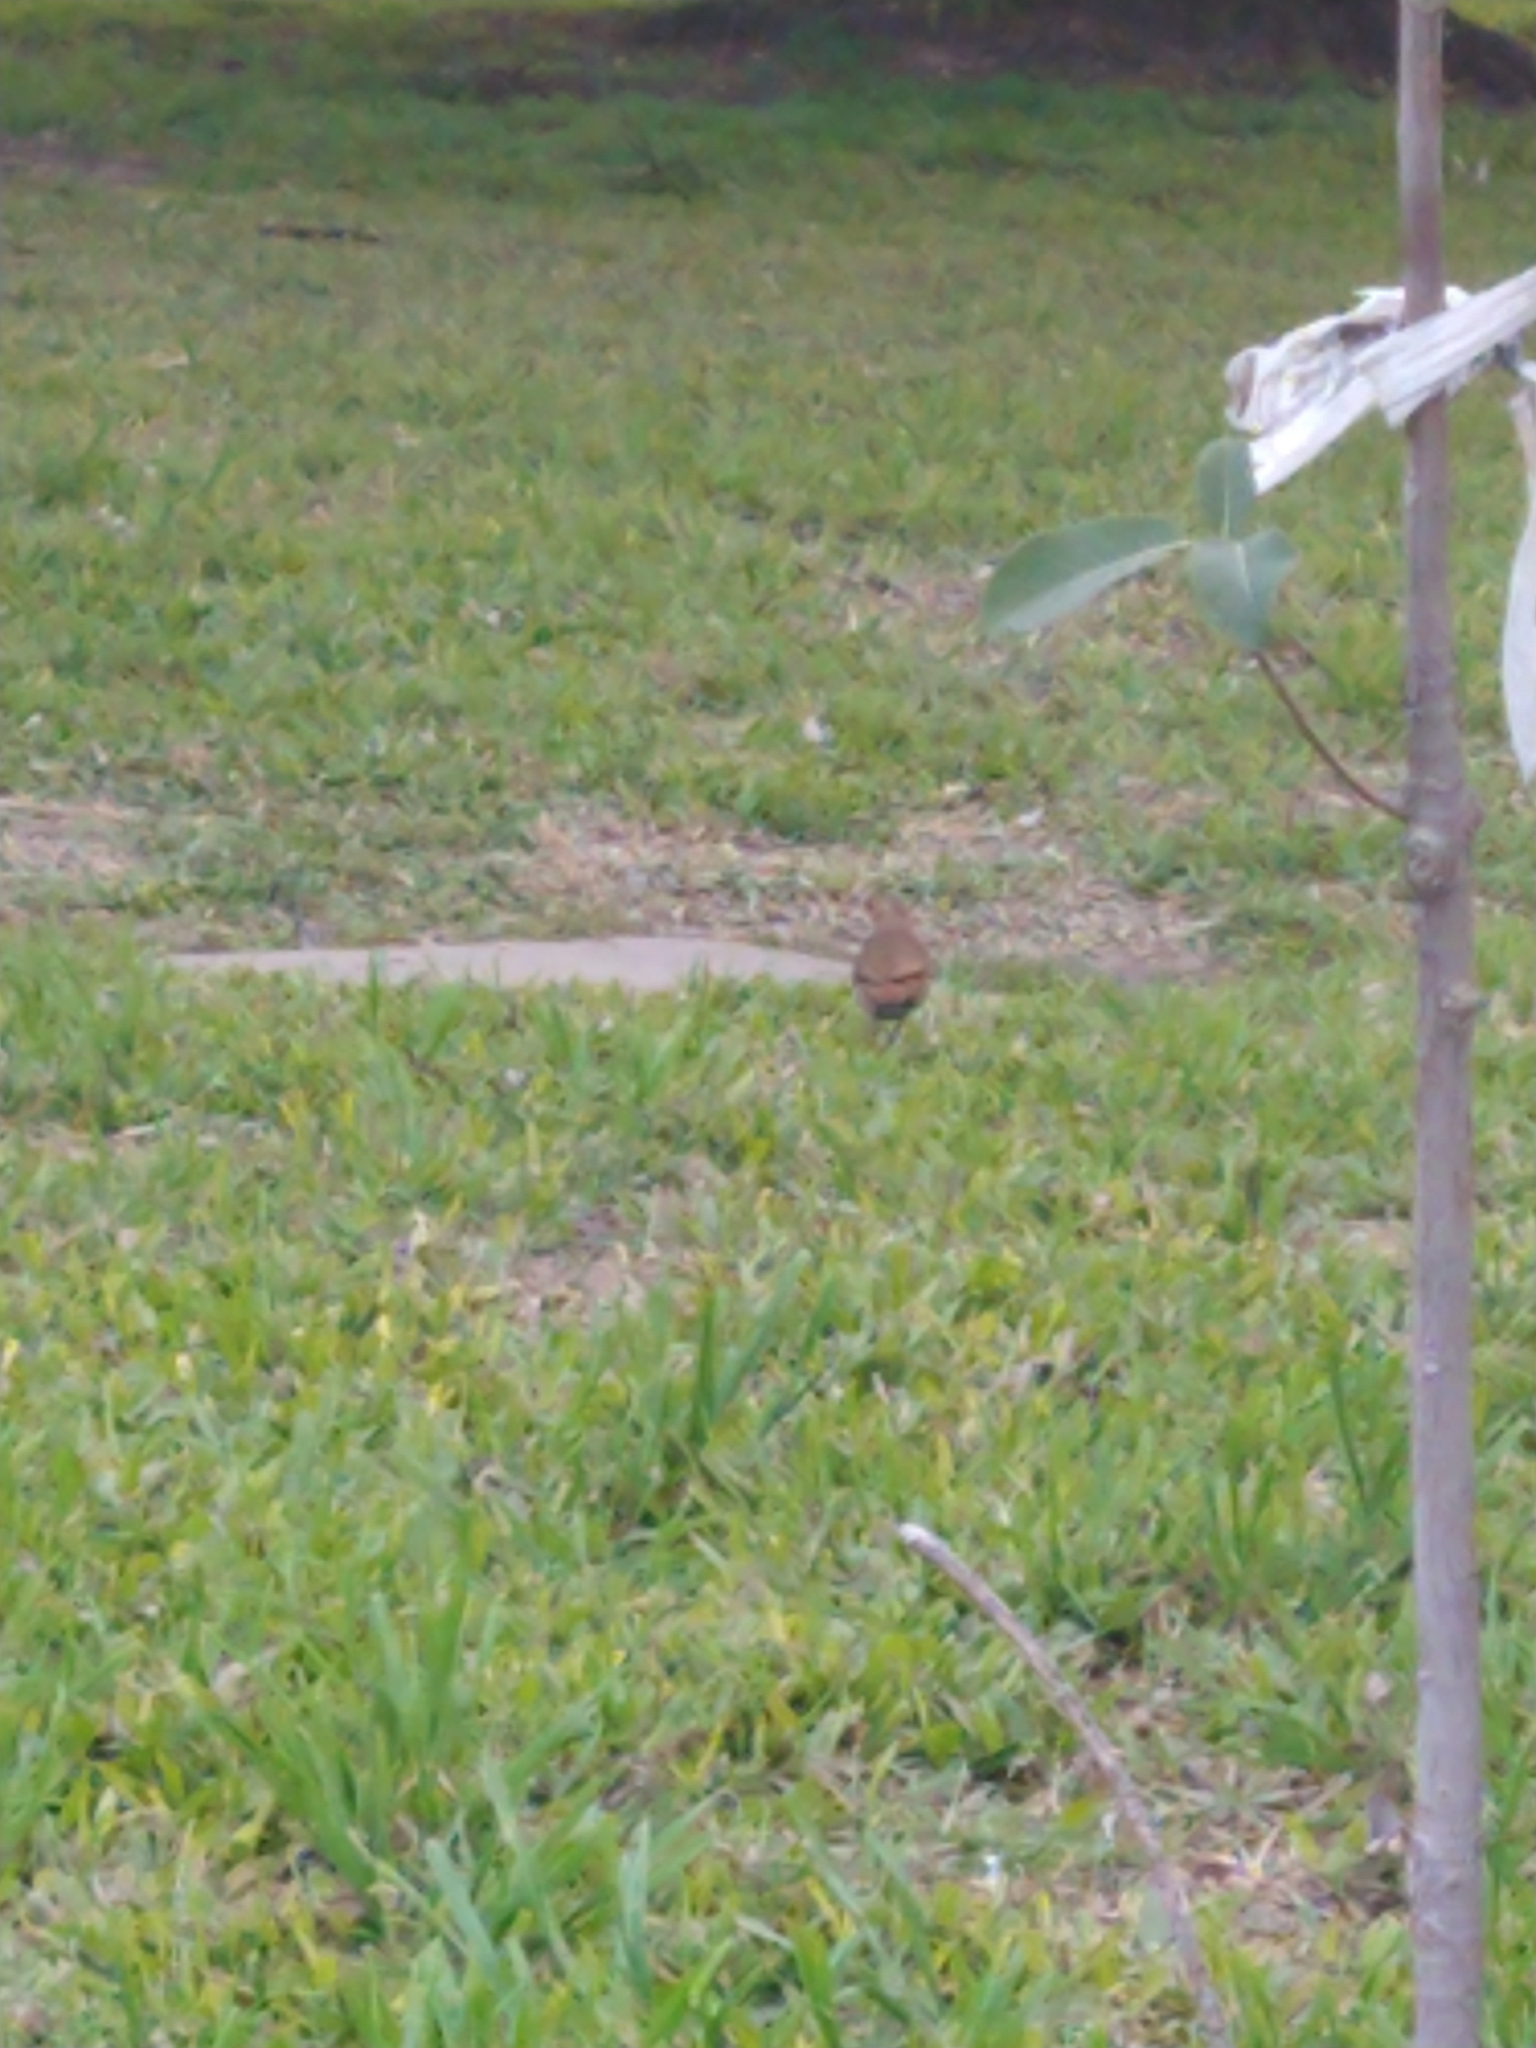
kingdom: Animalia
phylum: Chordata
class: Aves
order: Passeriformes
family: Furnariidae
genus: Furnarius
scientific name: Furnarius rufus
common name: Rufous hornero
